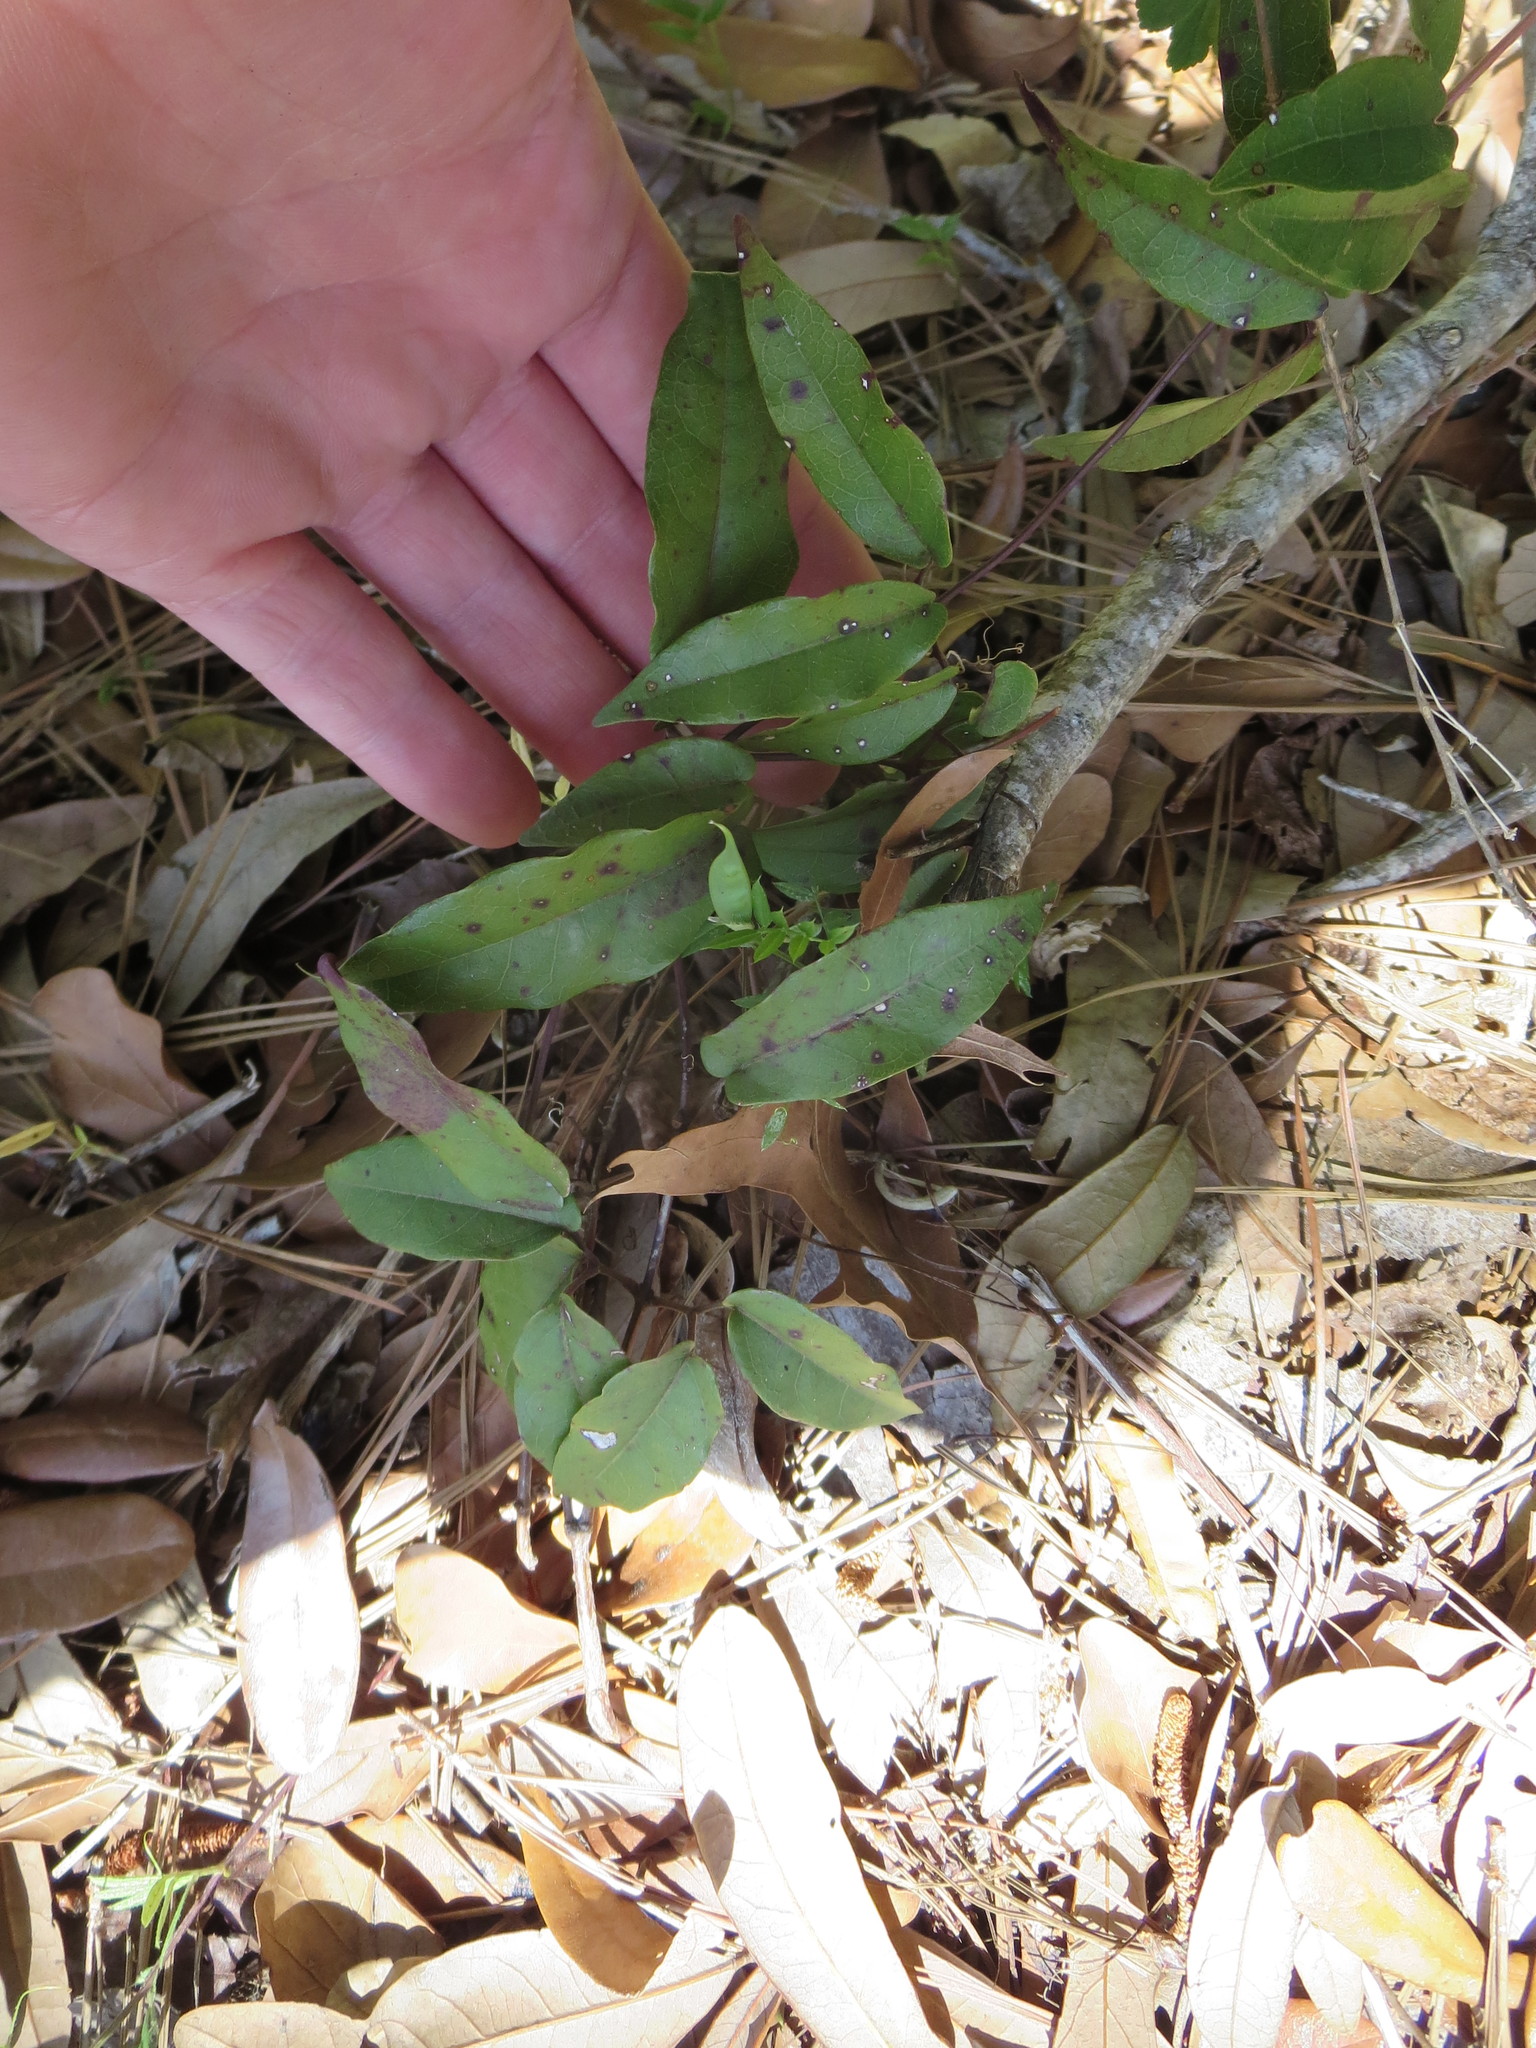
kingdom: Plantae
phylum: Tracheophyta
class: Magnoliopsida
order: Lamiales
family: Bignoniaceae
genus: Bignonia
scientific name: Bignonia capreolata
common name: Crossvine
